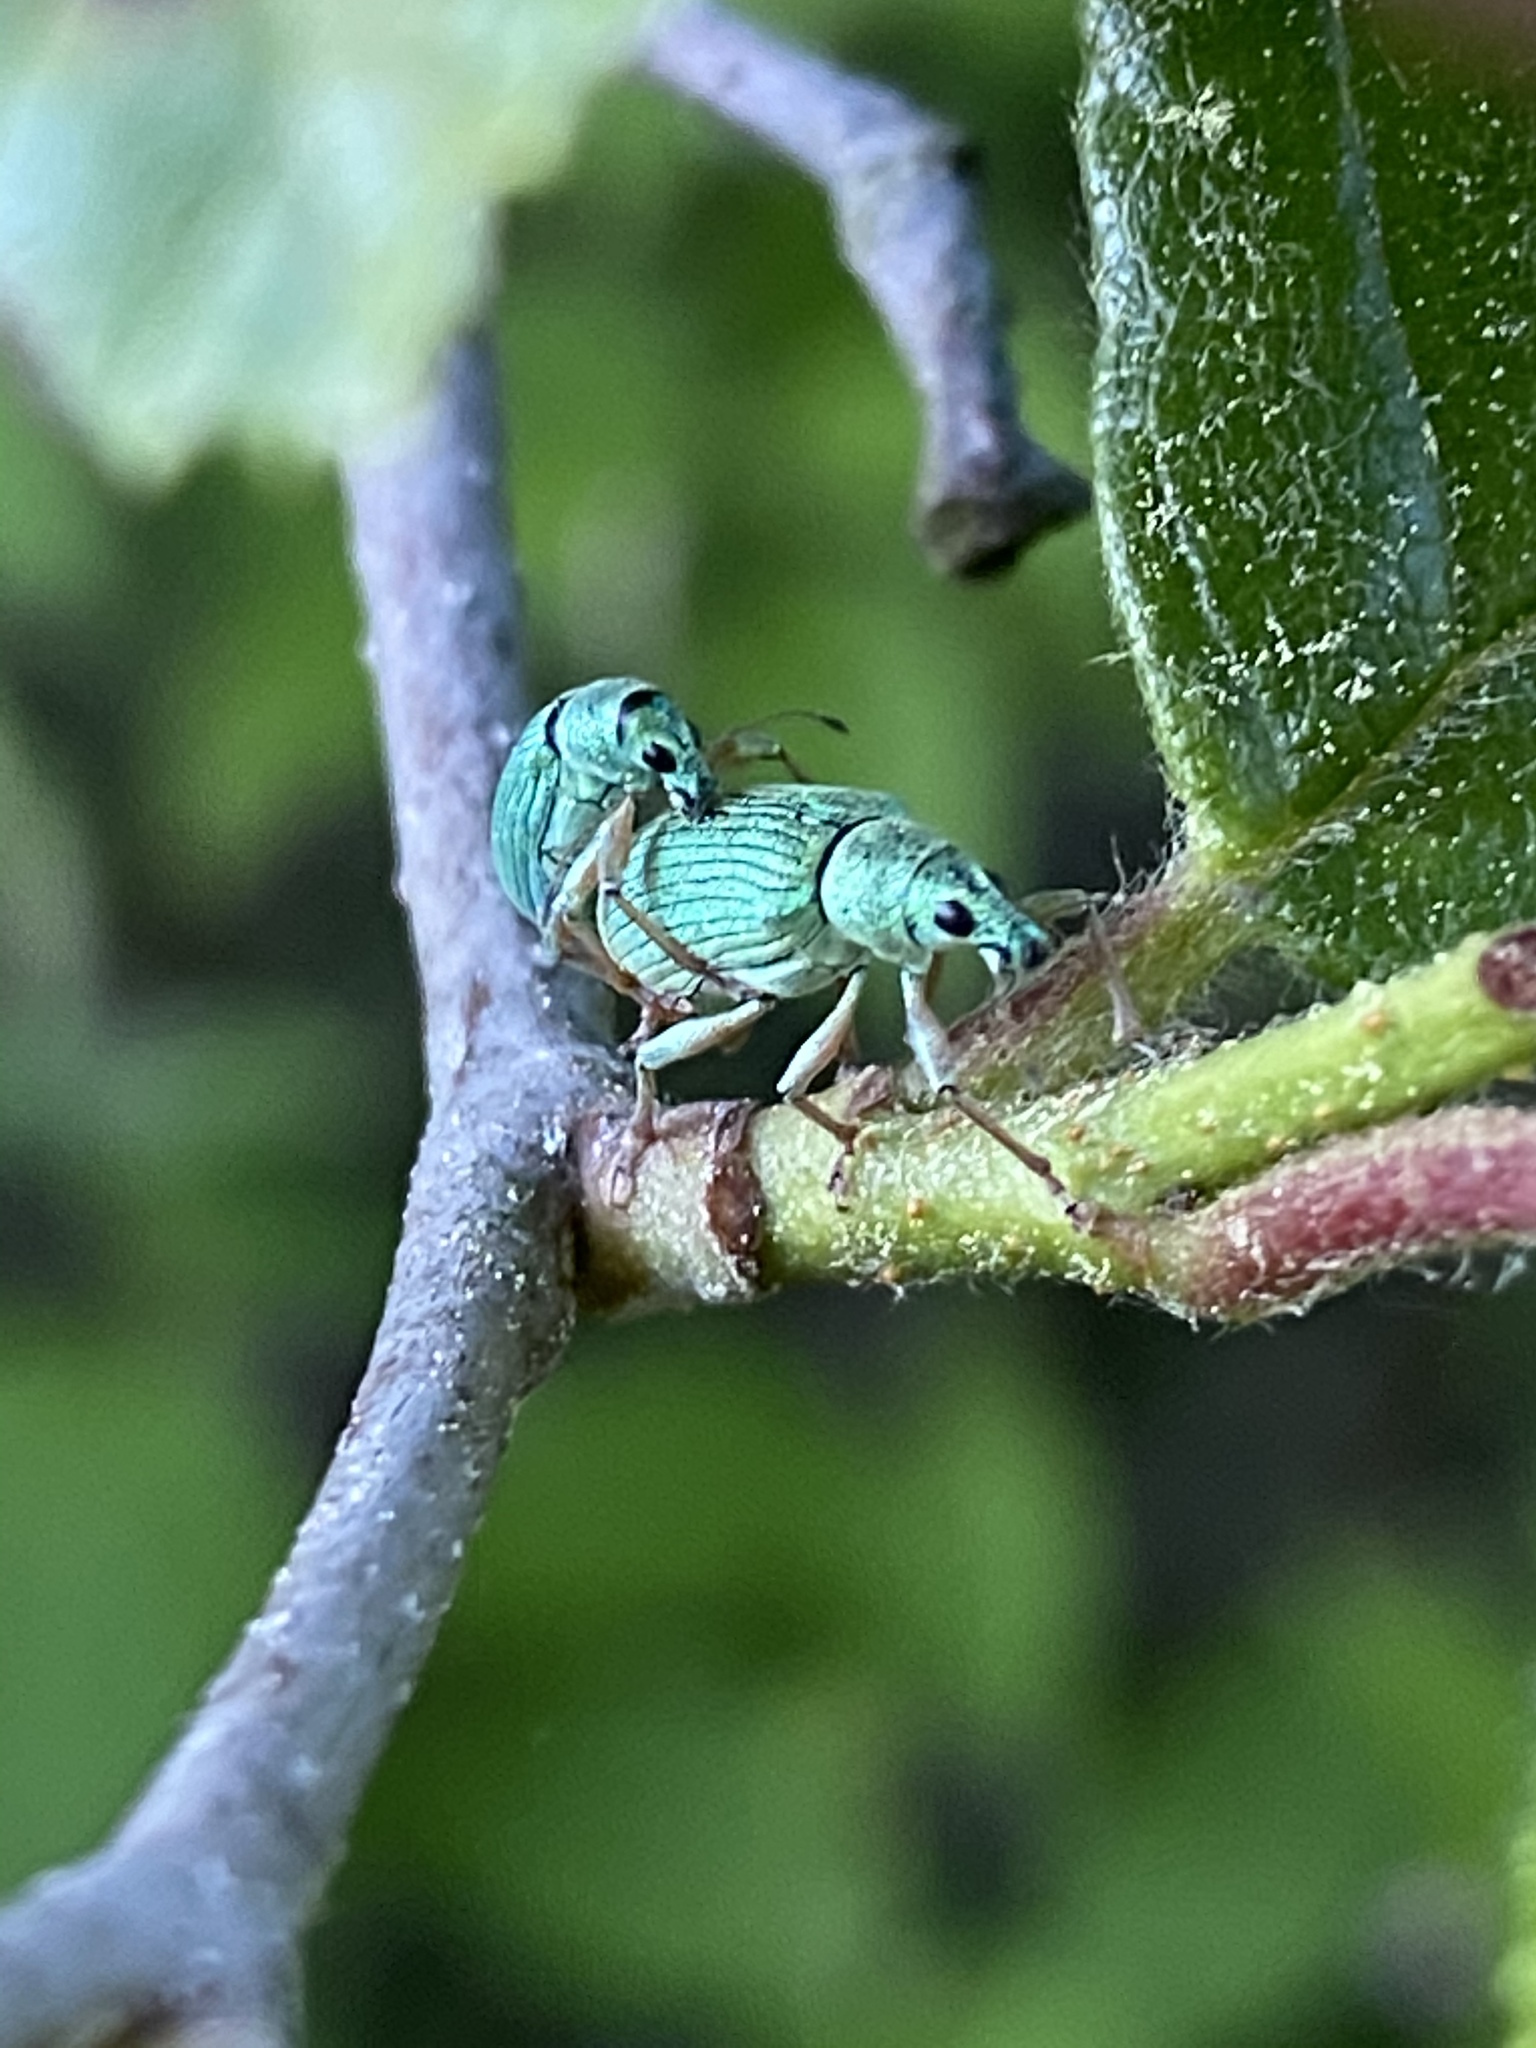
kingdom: Animalia
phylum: Arthropoda
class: Insecta
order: Coleoptera
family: Curculionidae
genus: Polydrusus
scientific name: Polydrusus formosus
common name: Weevil
